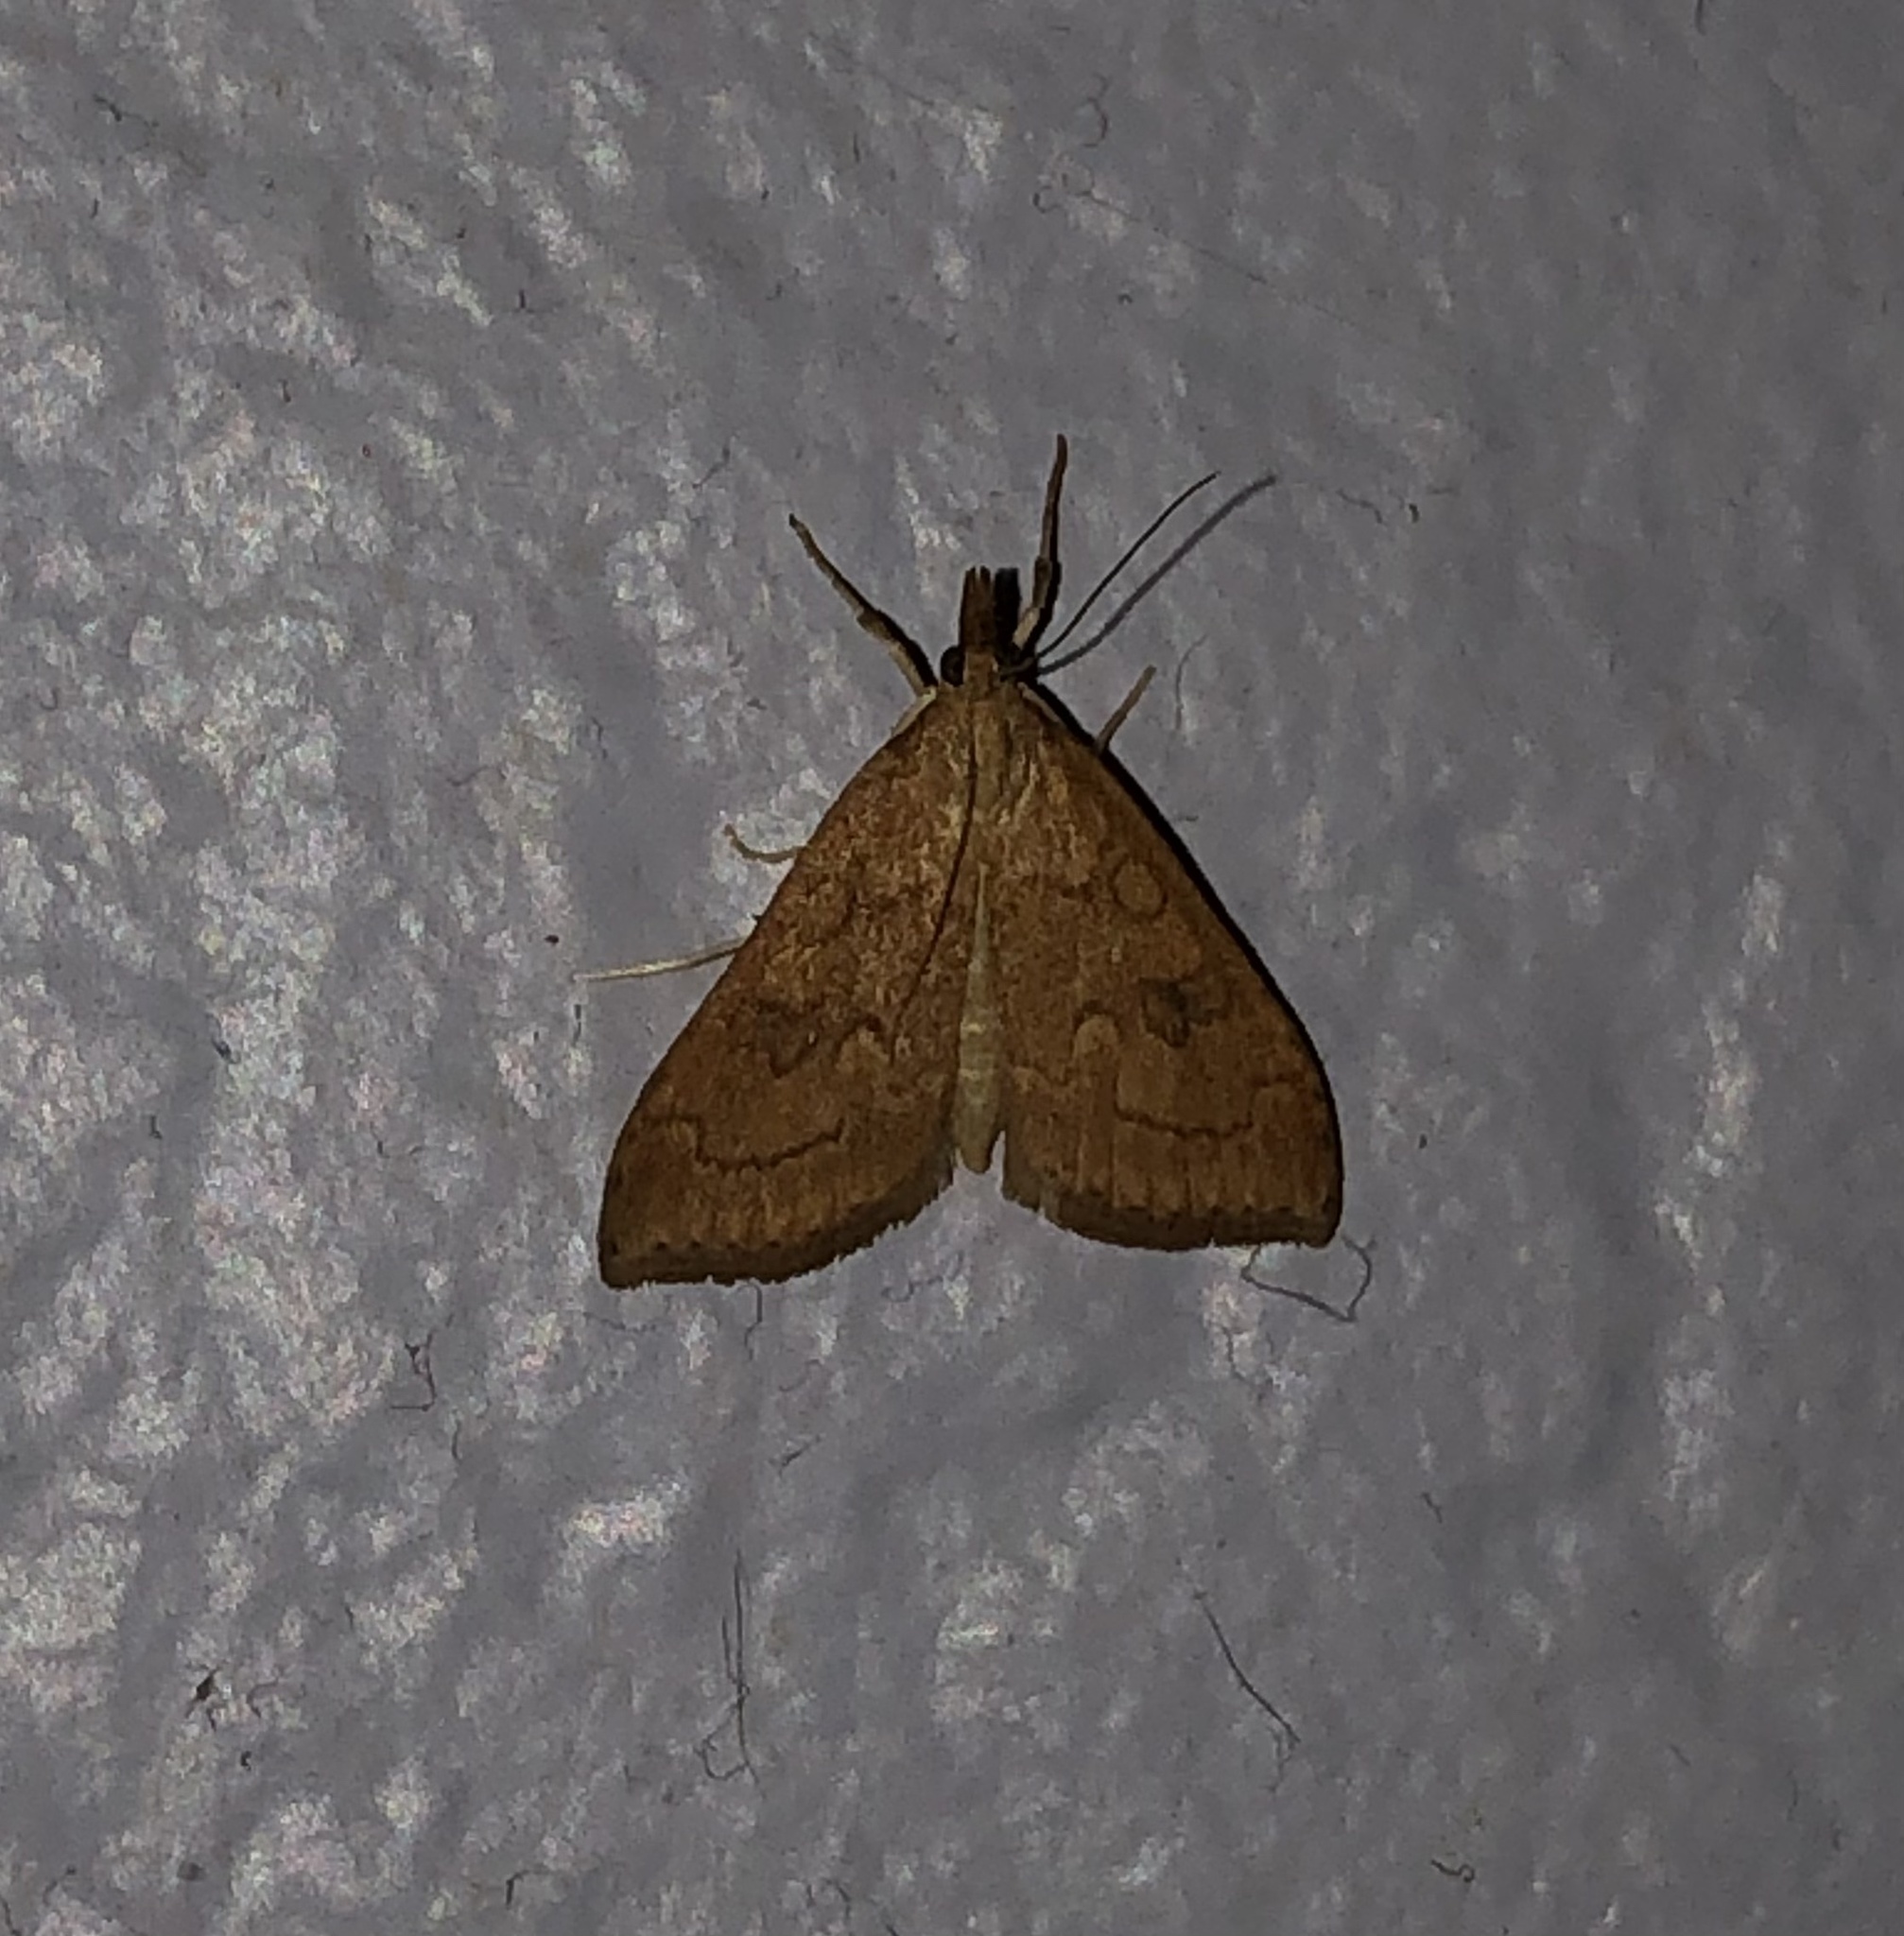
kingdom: Animalia
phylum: Arthropoda
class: Insecta
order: Lepidoptera
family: Crambidae
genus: Udea
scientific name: Udea profundalis
